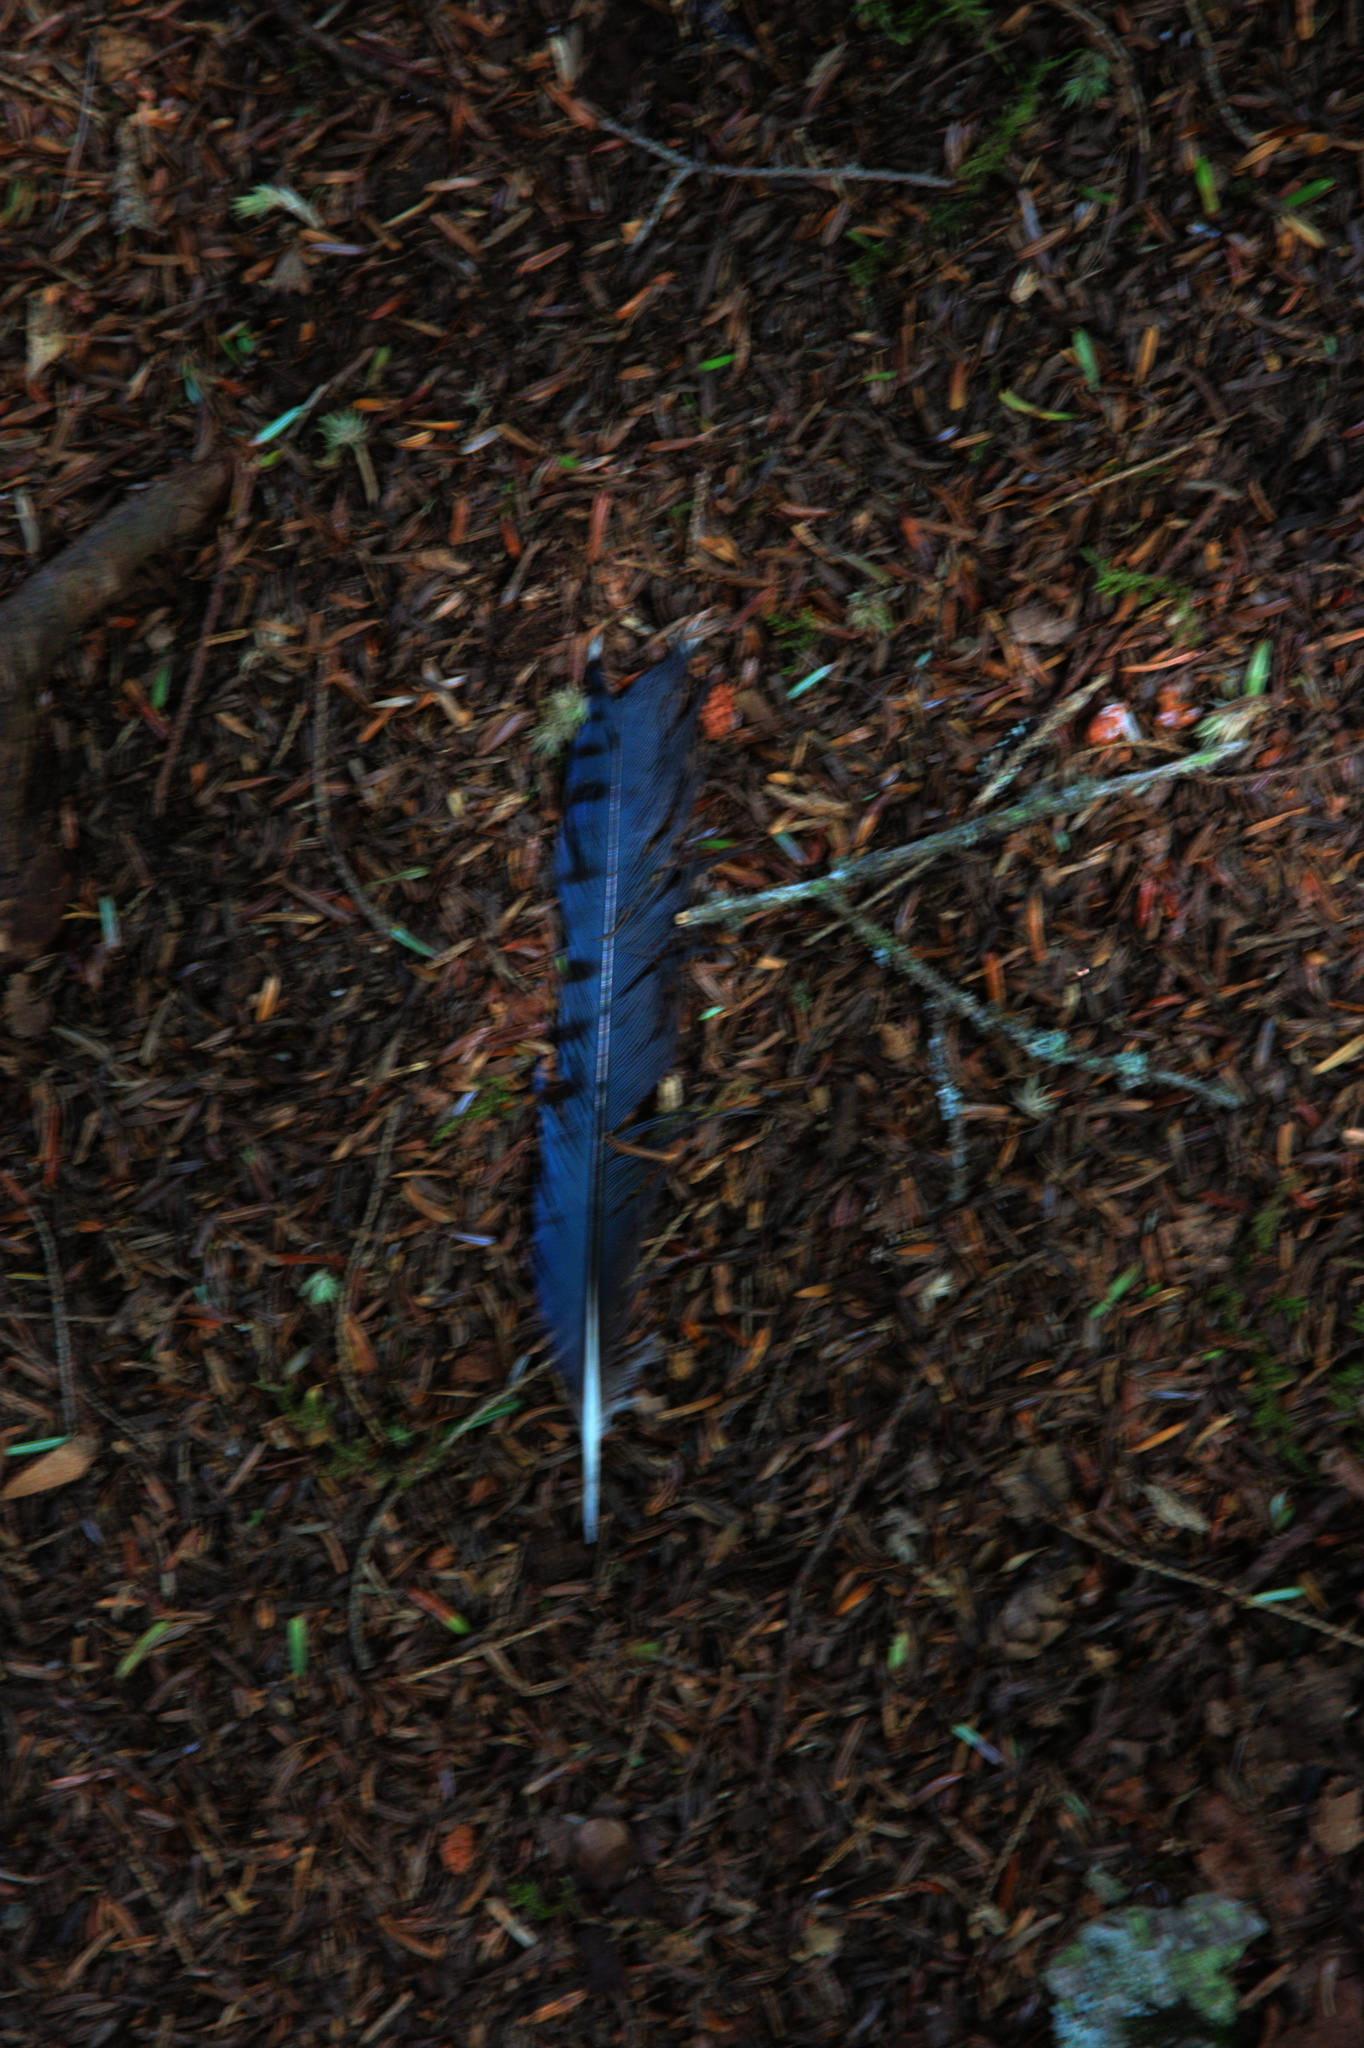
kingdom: Animalia
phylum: Chordata
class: Aves
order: Passeriformes
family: Corvidae
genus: Cyanocitta
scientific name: Cyanocitta cristata
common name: Blue jay
